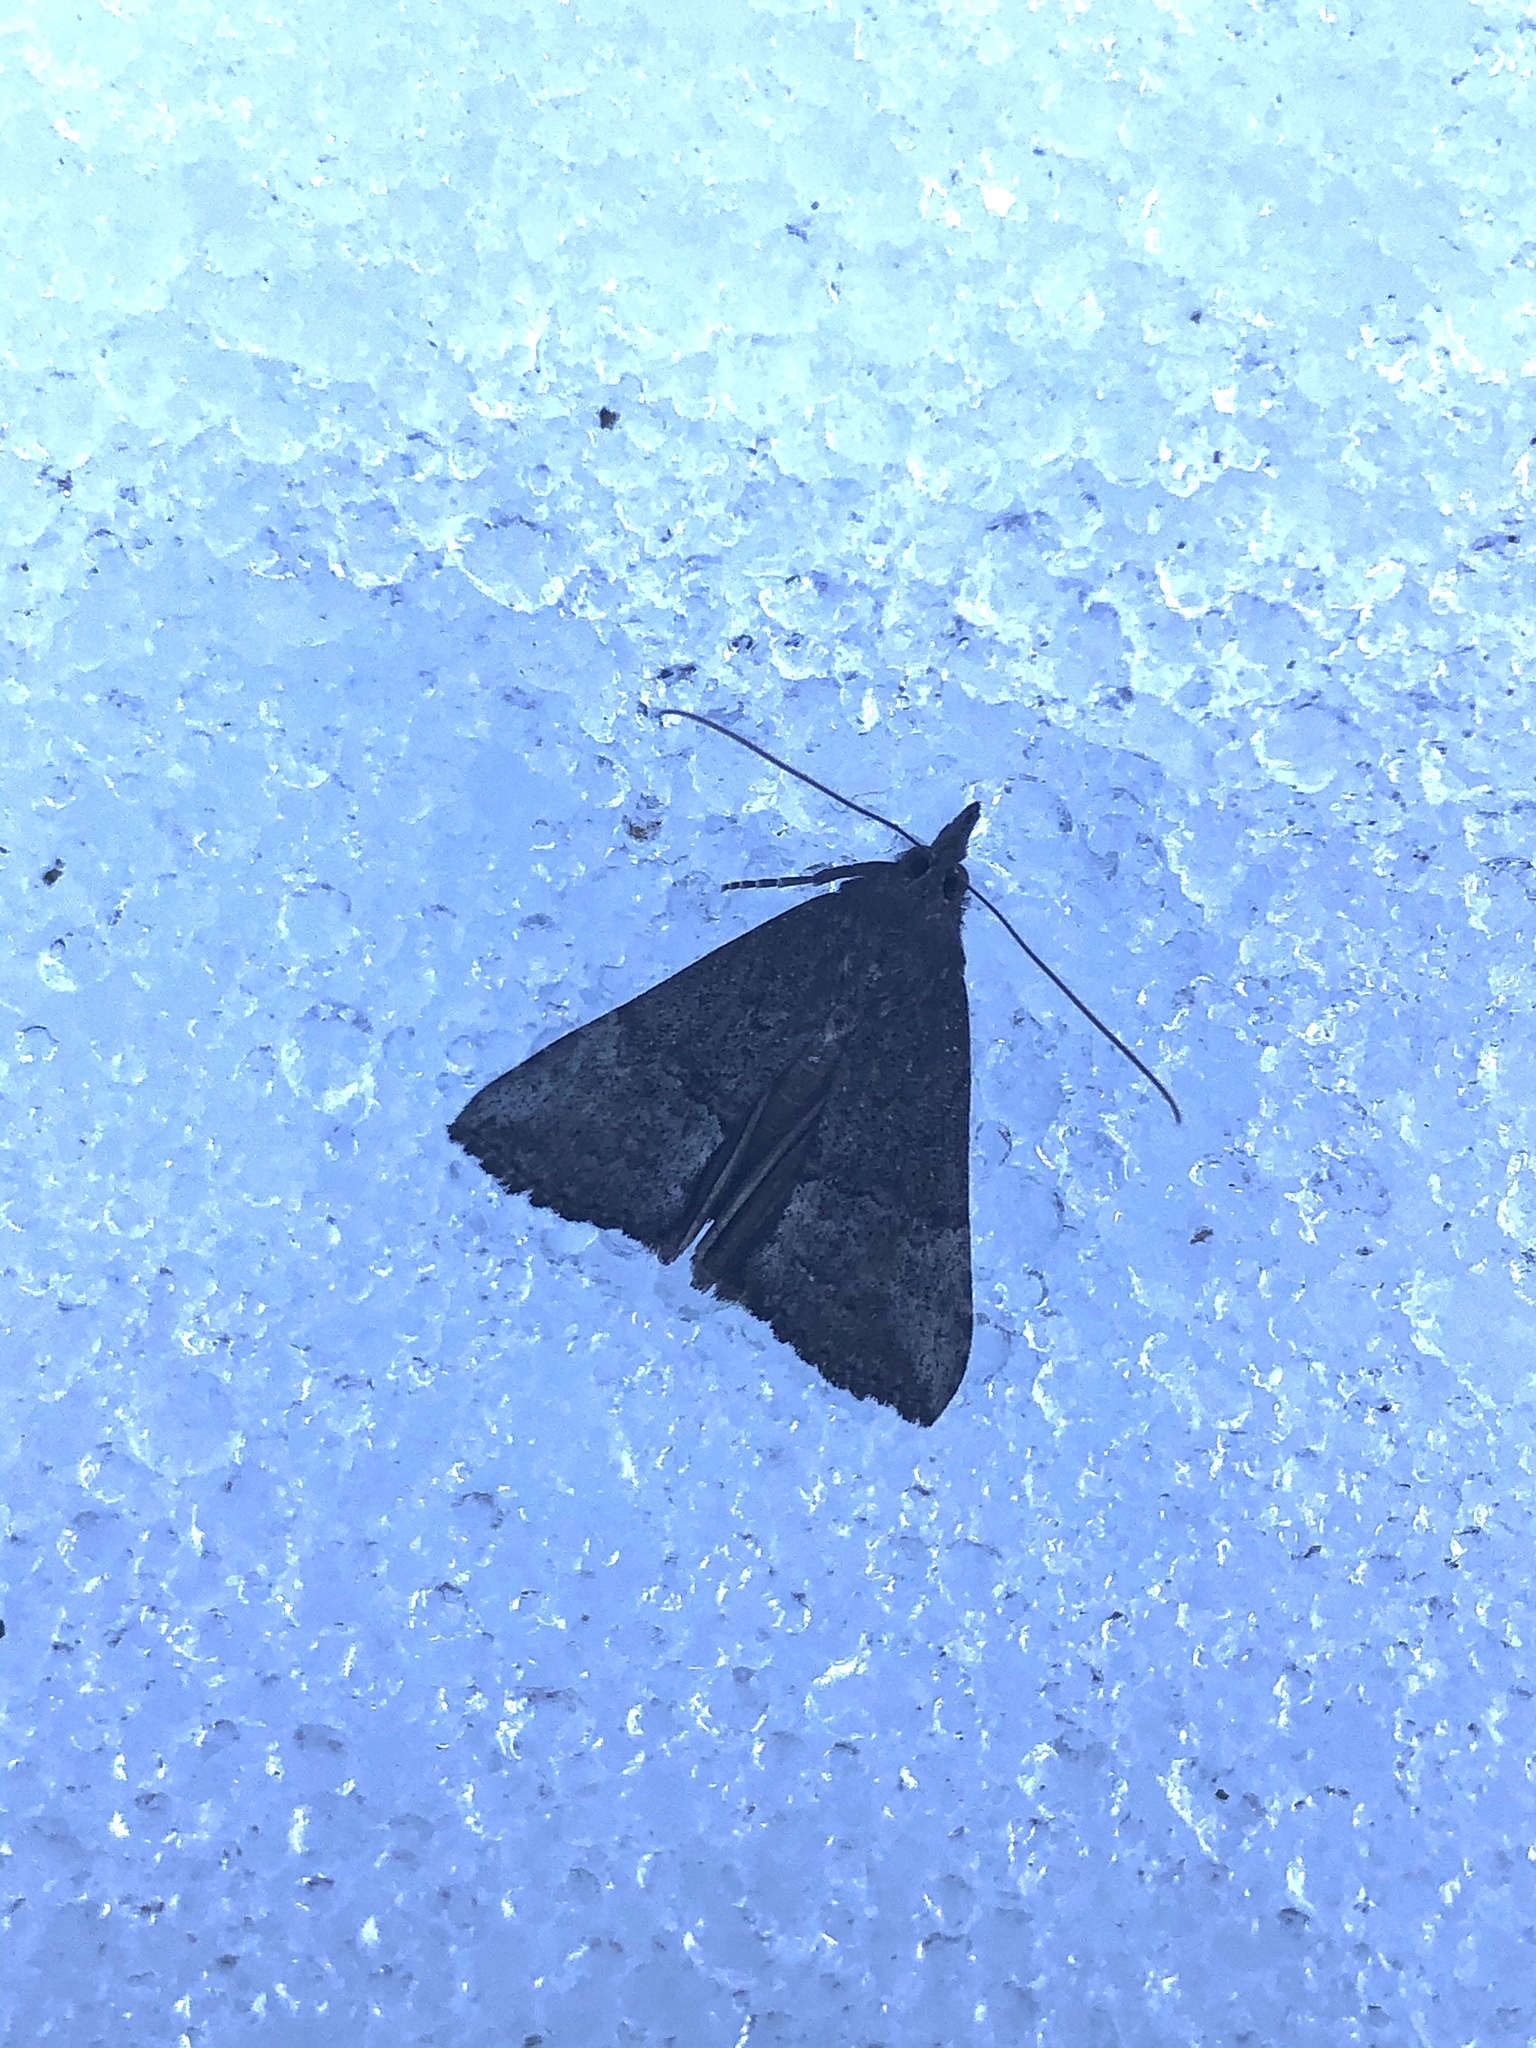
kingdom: Animalia
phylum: Arthropoda
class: Insecta
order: Lepidoptera
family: Erebidae
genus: Hypena
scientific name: Hypena scabra
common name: Green cloverworm
